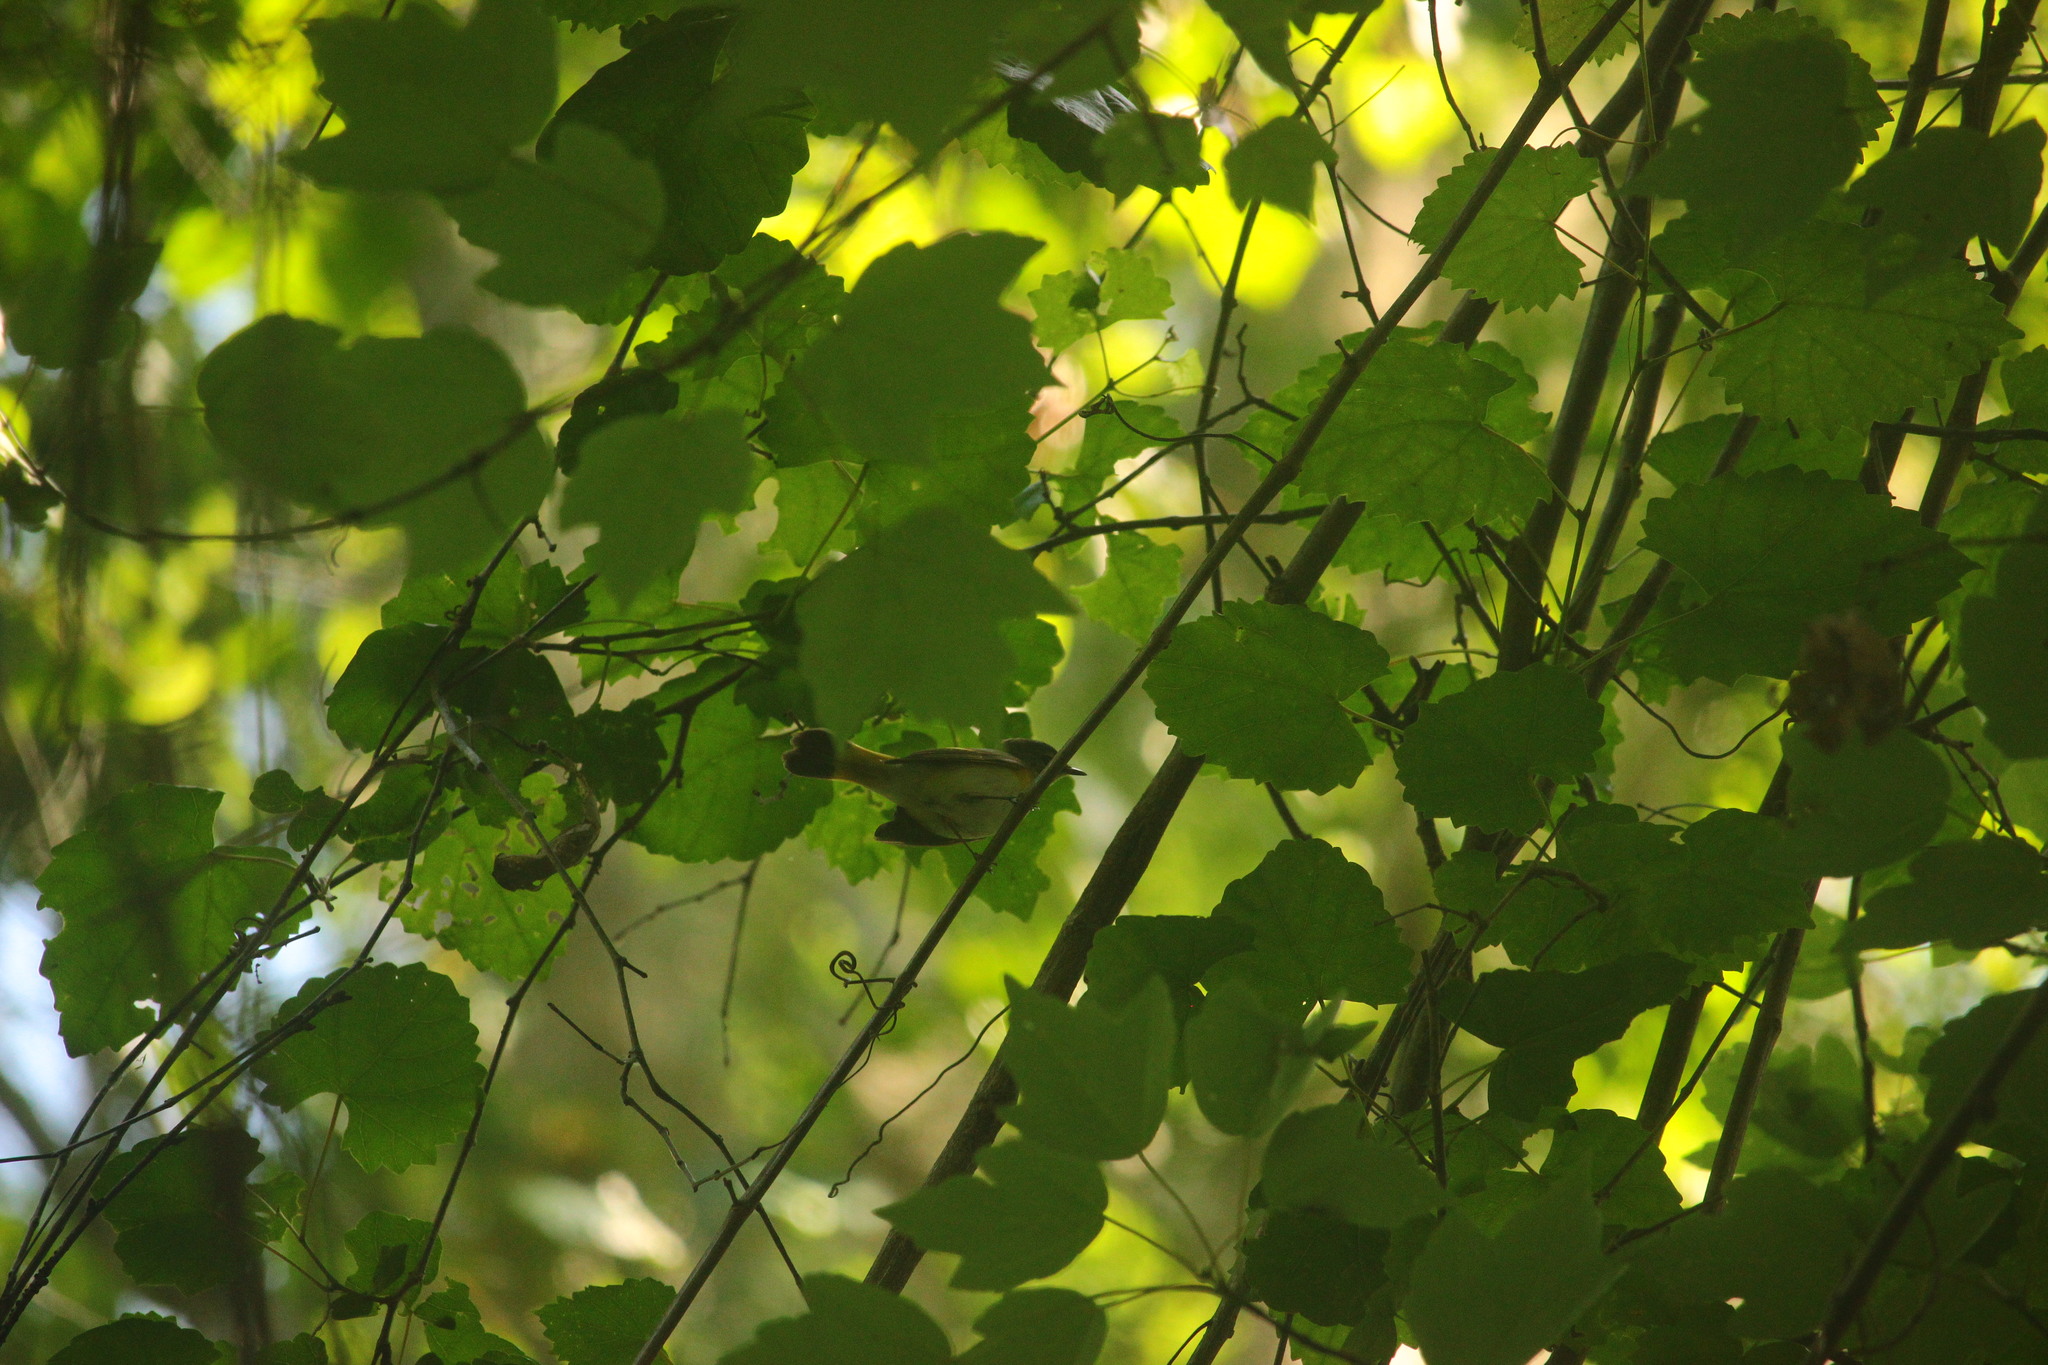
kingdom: Animalia
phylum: Chordata
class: Aves
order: Passeriformes
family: Parulidae
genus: Setophaga
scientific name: Setophaga ruticilla
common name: American redstart
